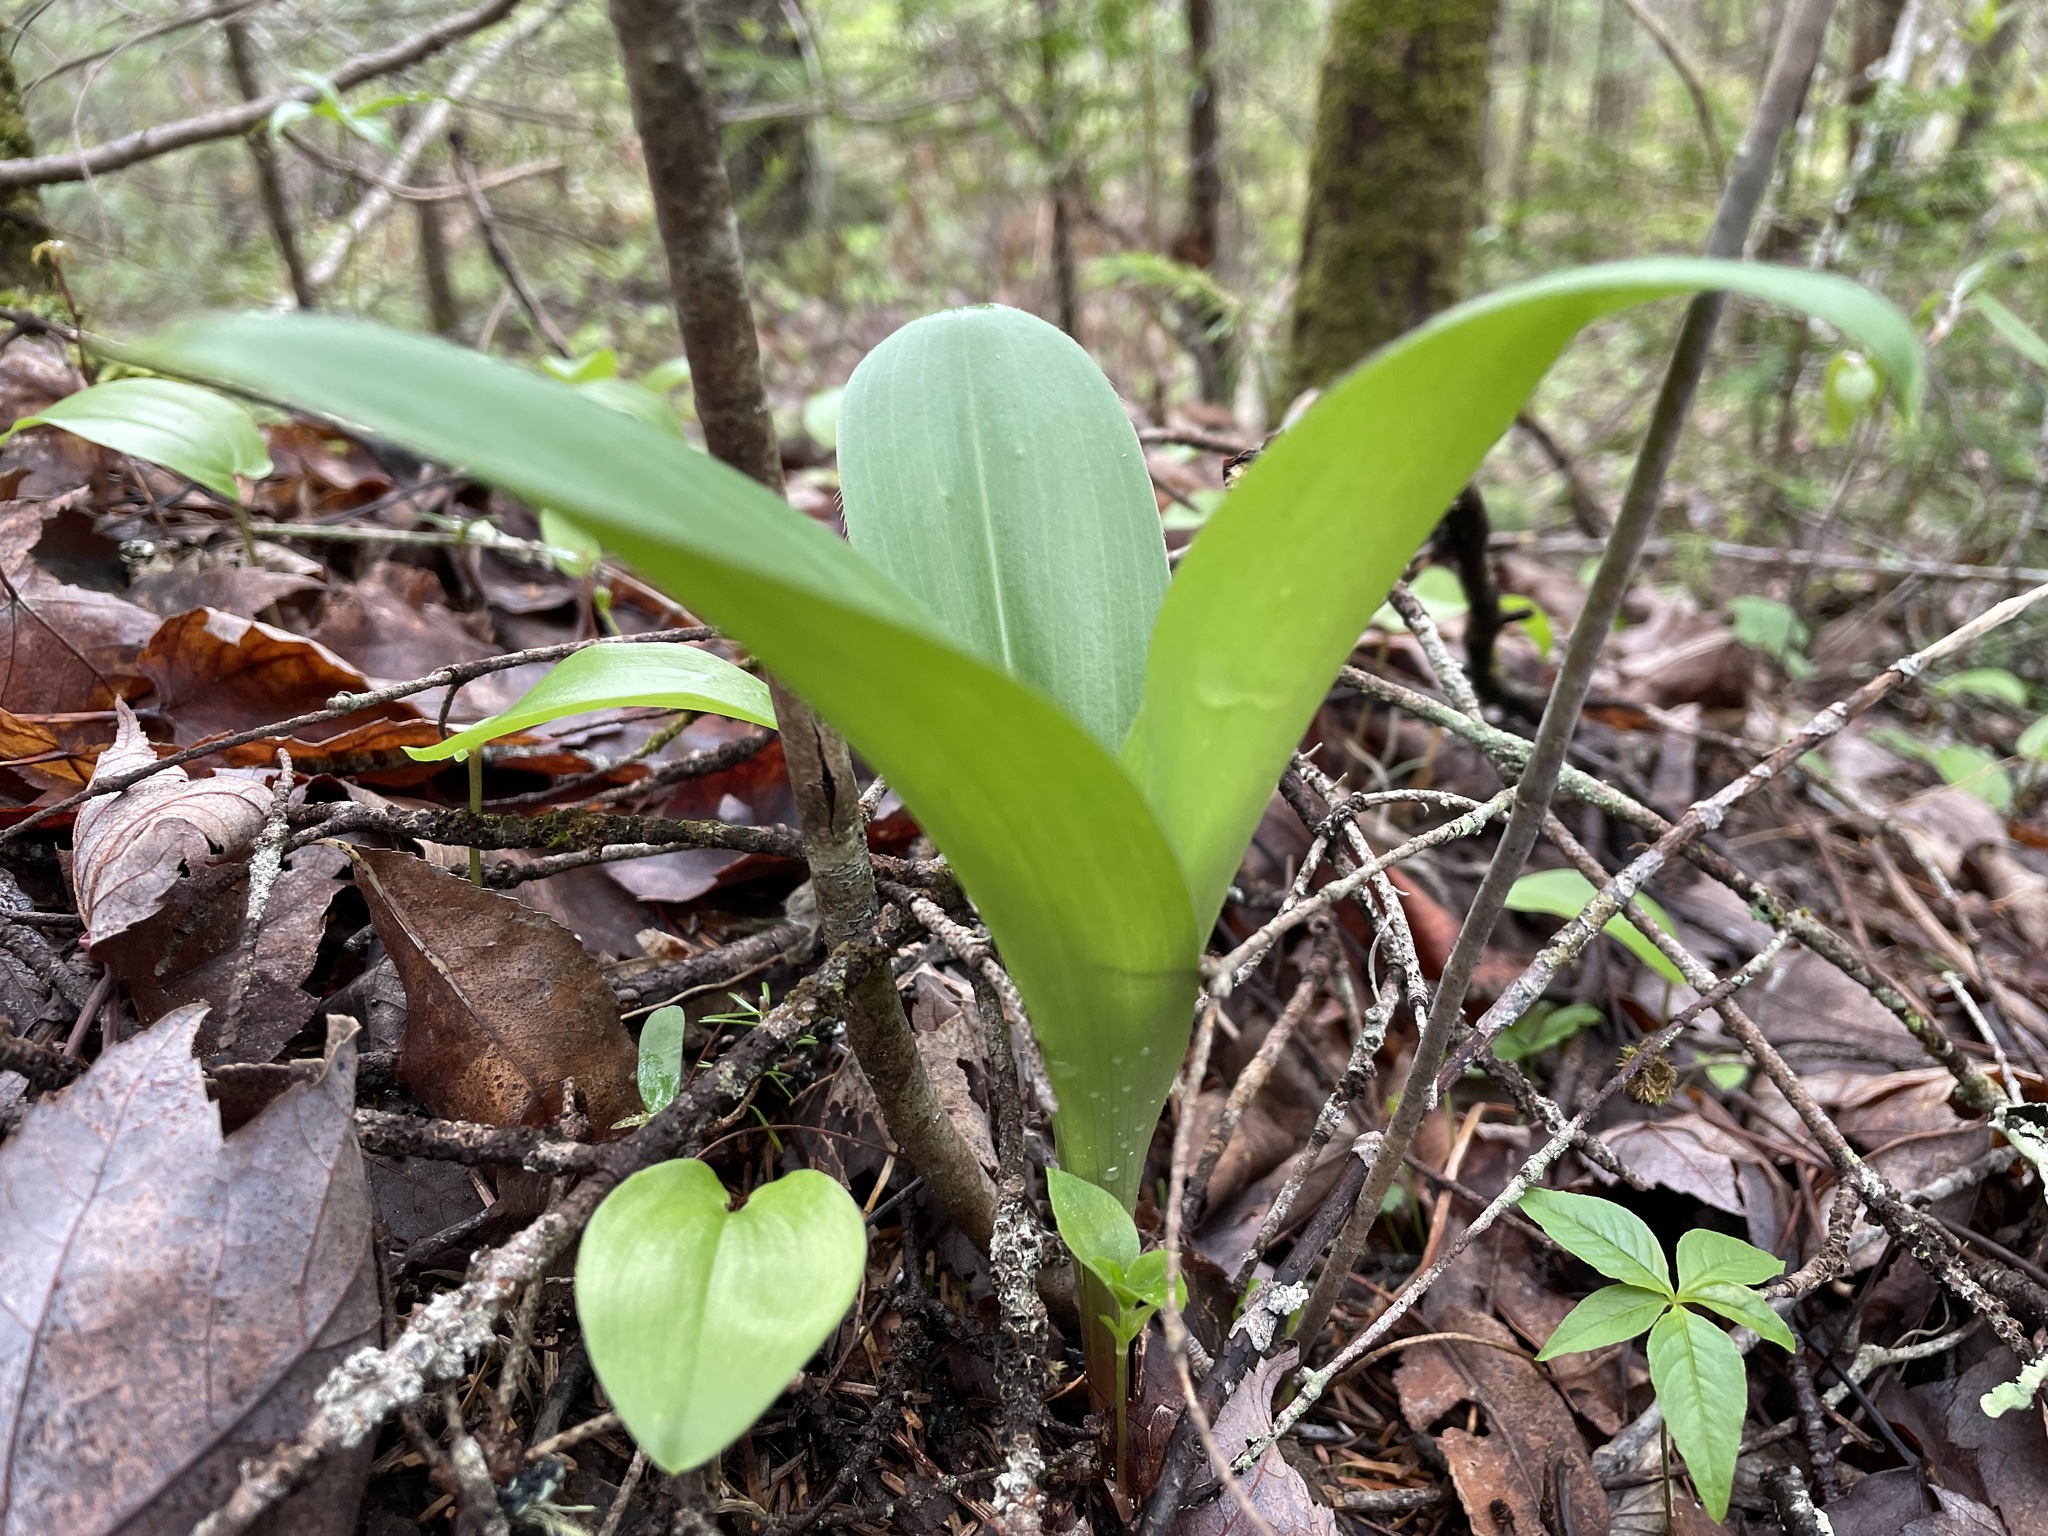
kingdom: Plantae
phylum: Tracheophyta
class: Liliopsida
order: Liliales
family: Liliaceae
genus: Clintonia
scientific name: Clintonia borealis
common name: Yellow clintonia
